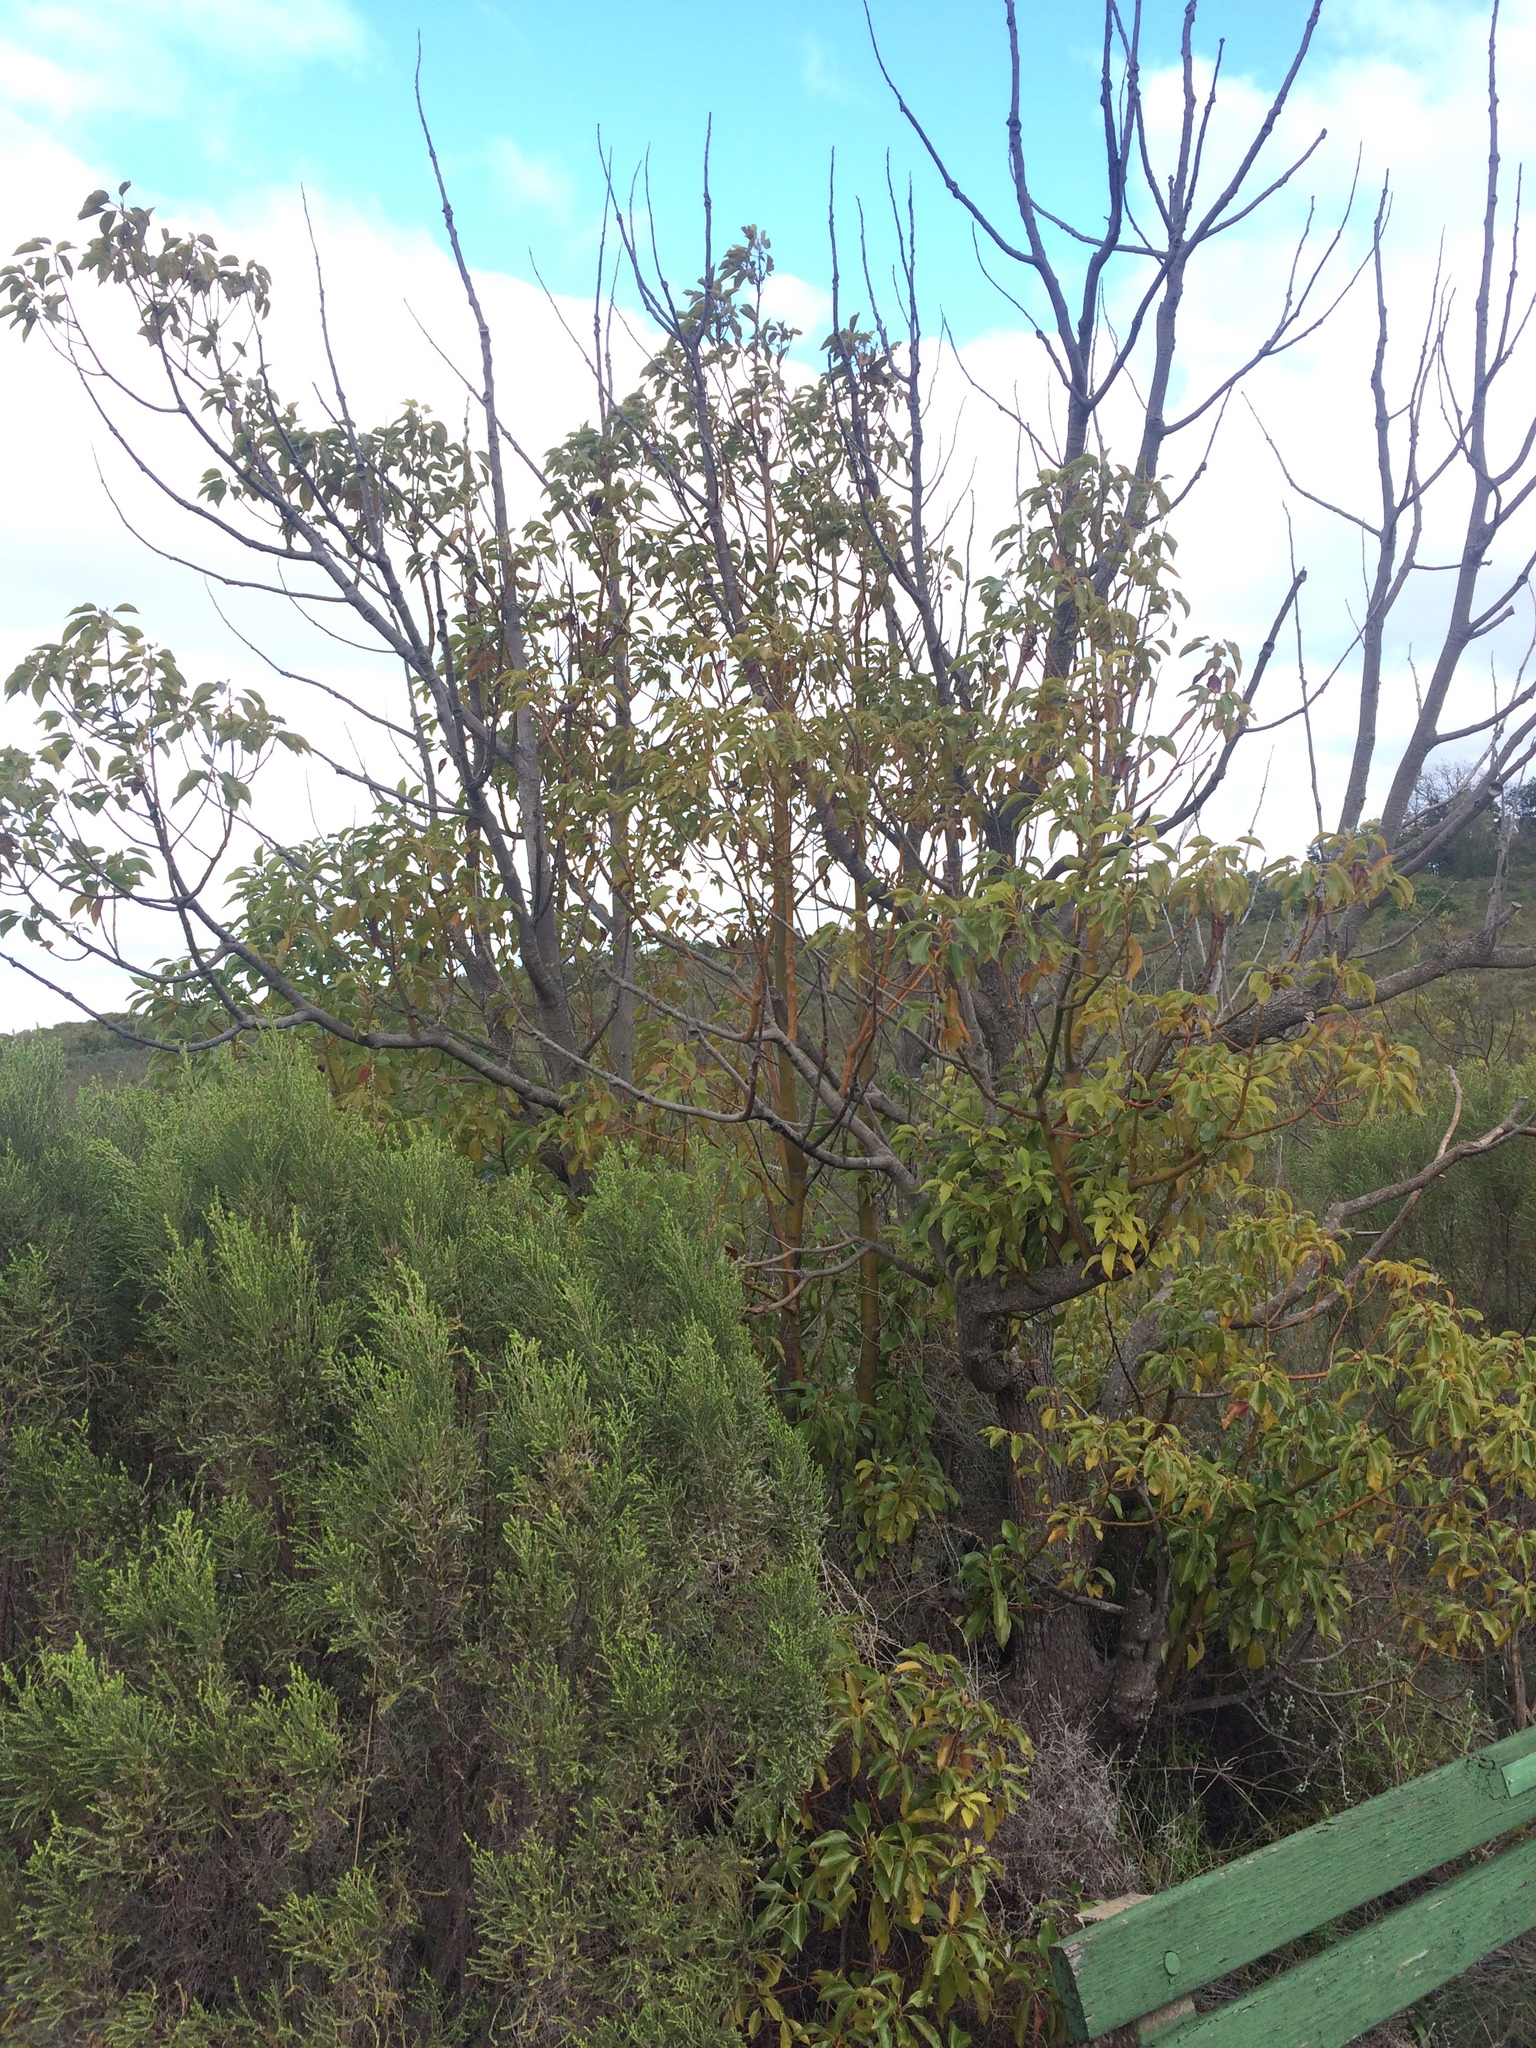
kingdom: Plantae
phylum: Tracheophyta
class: Magnoliopsida
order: Laurales
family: Lauraceae
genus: Cinnamomum
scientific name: Cinnamomum camphora
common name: Camphortree
